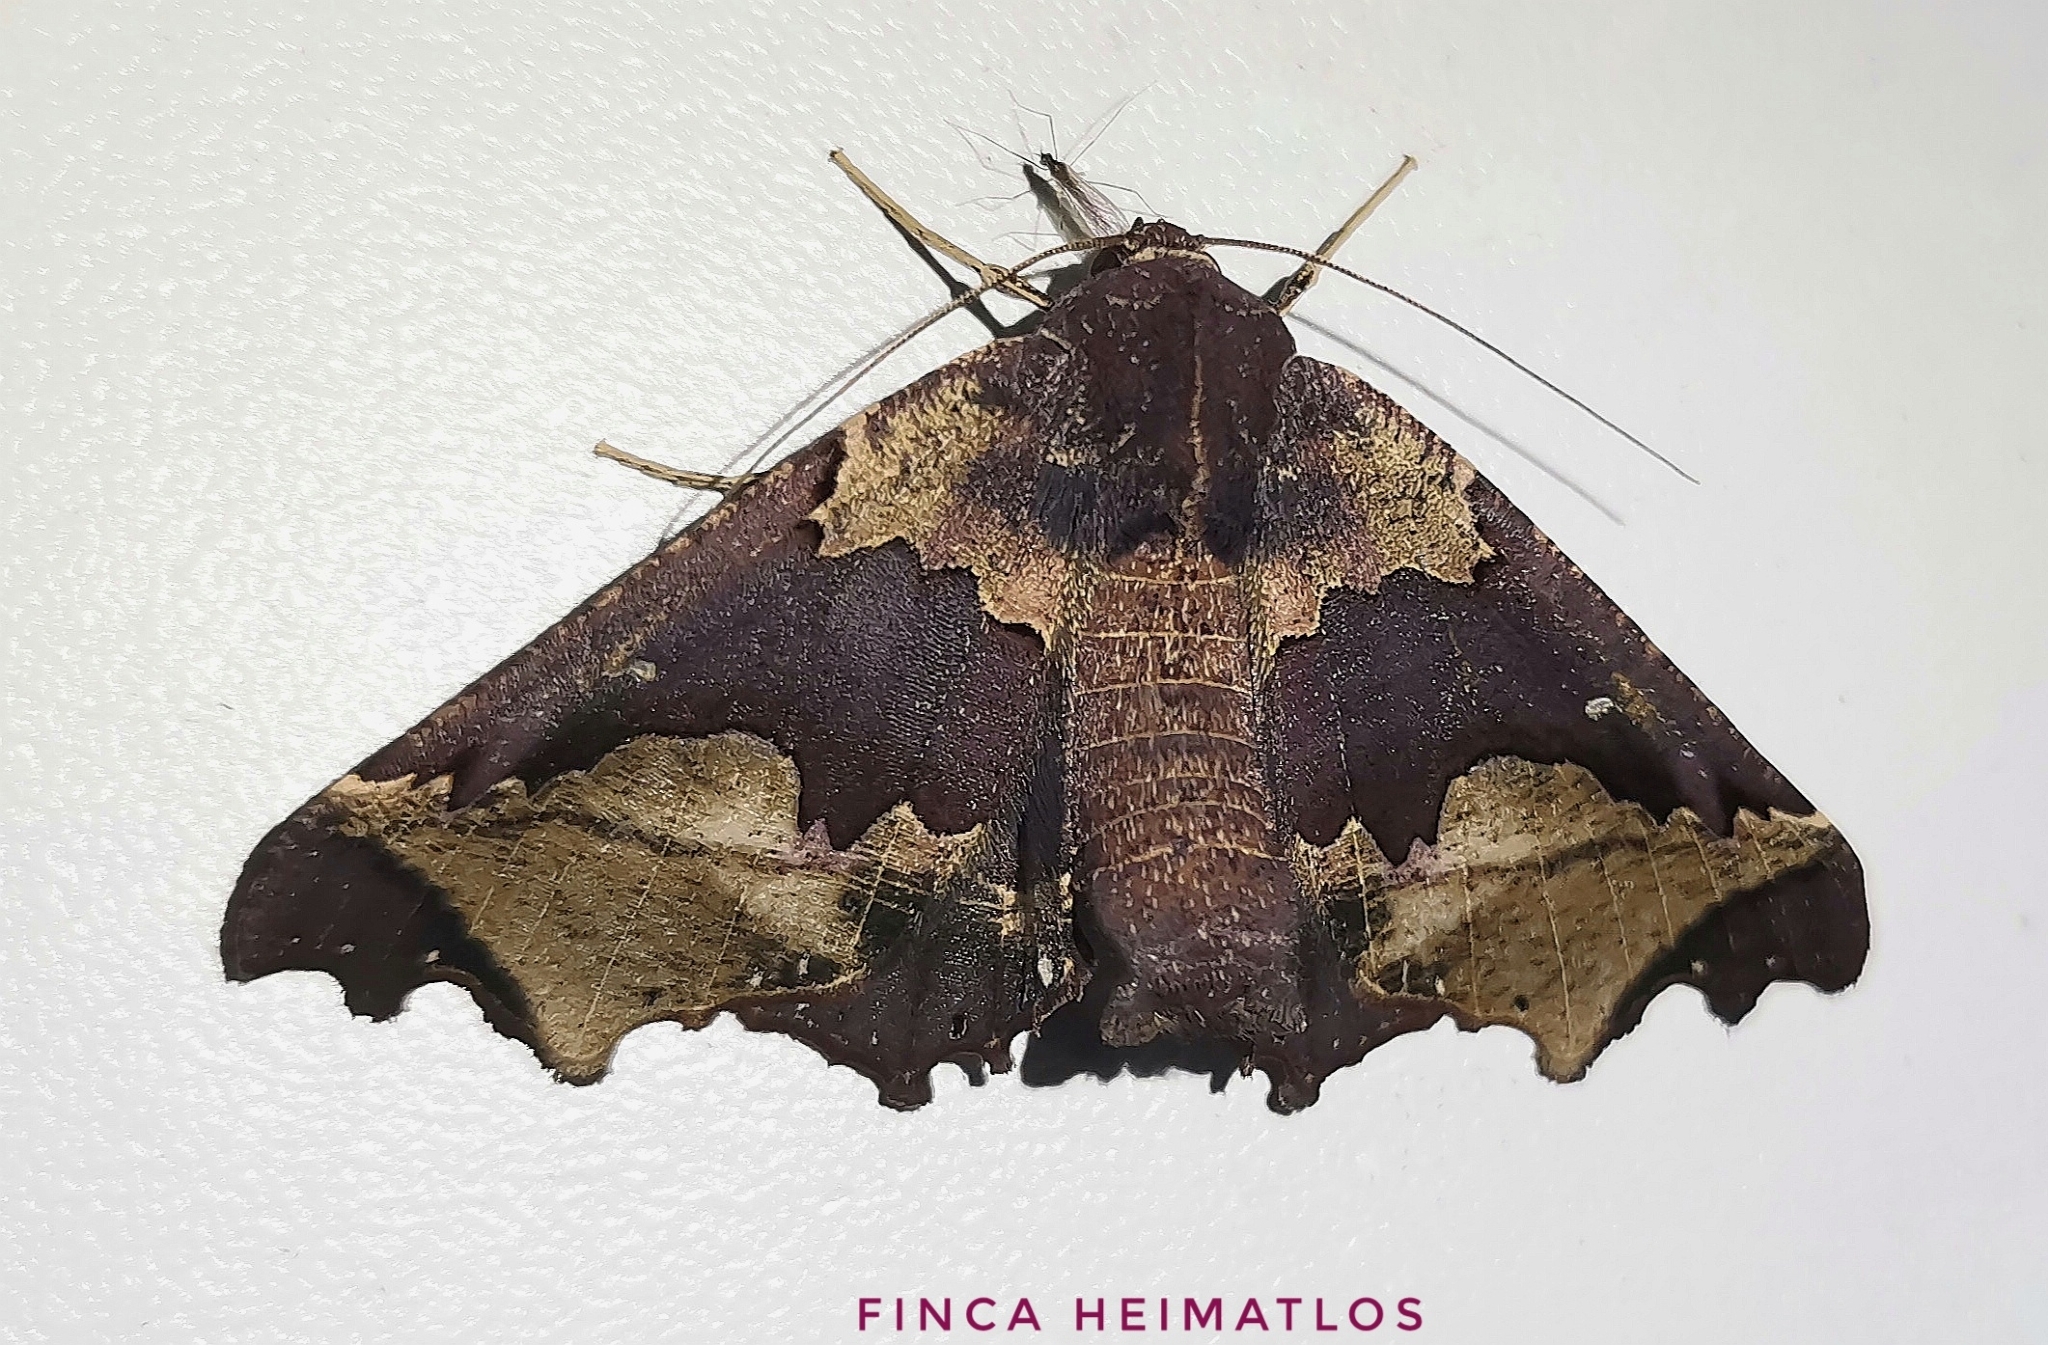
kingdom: Animalia
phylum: Arthropoda
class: Insecta
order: Lepidoptera
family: Geometridae
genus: Pero
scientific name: Pero chapela
